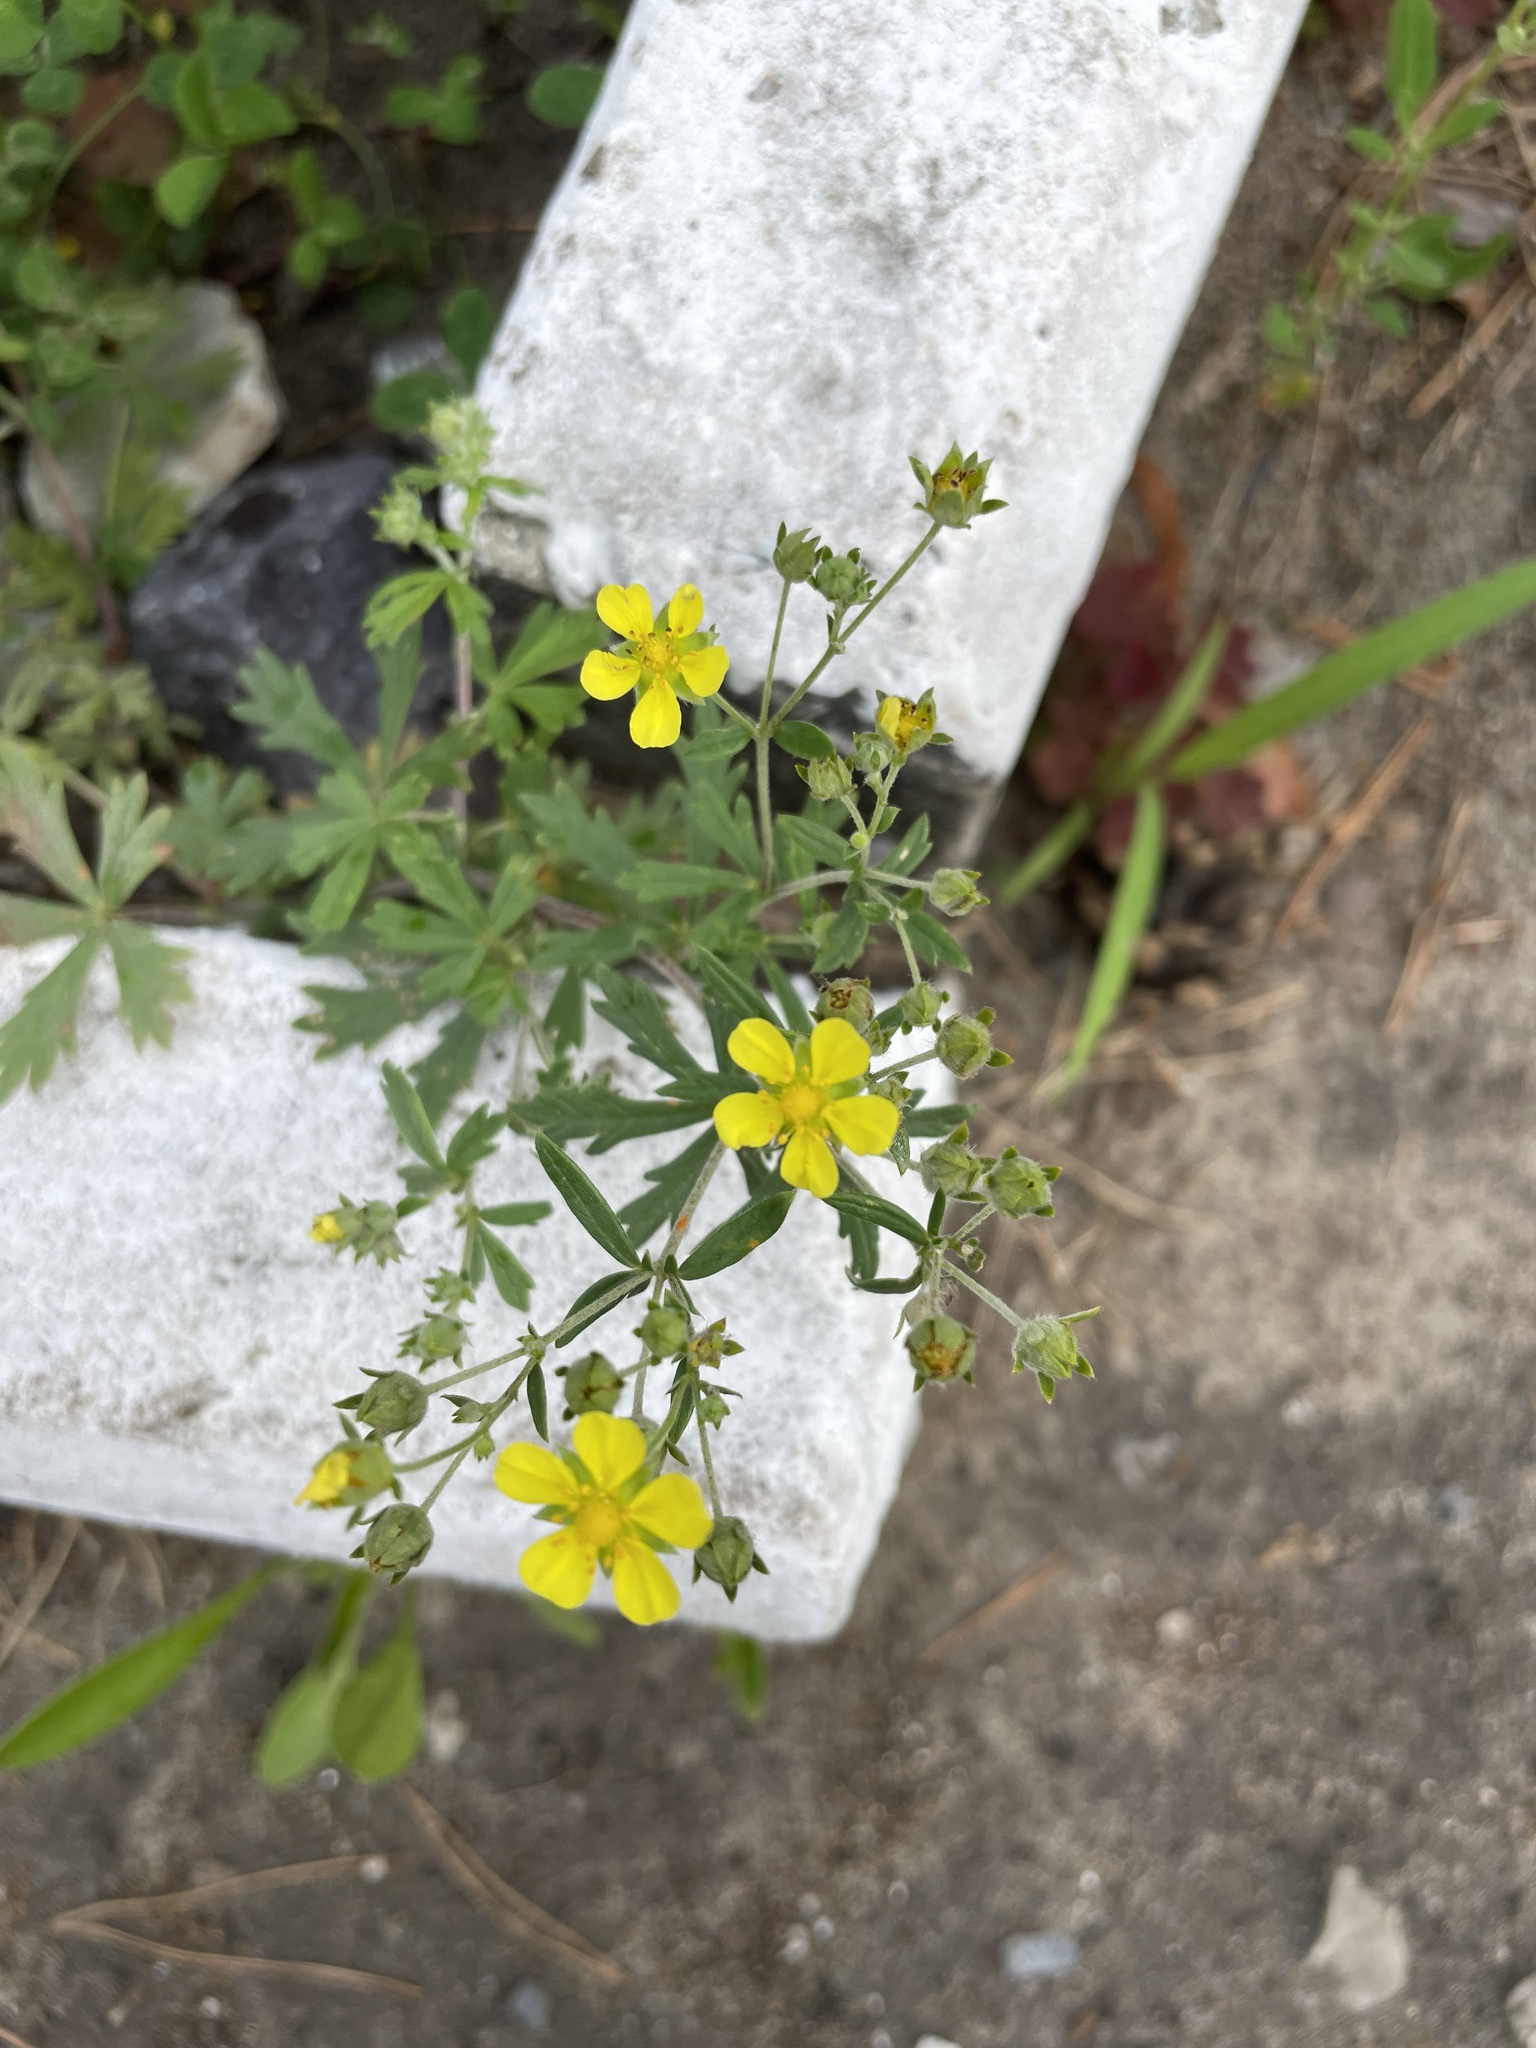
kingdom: Plantae
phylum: Tracheophyta
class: Magnoliopsida
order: Rosales
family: Rosaceae
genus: Potentilla
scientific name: Potentilla argentea
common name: Hoary cinquefoil
